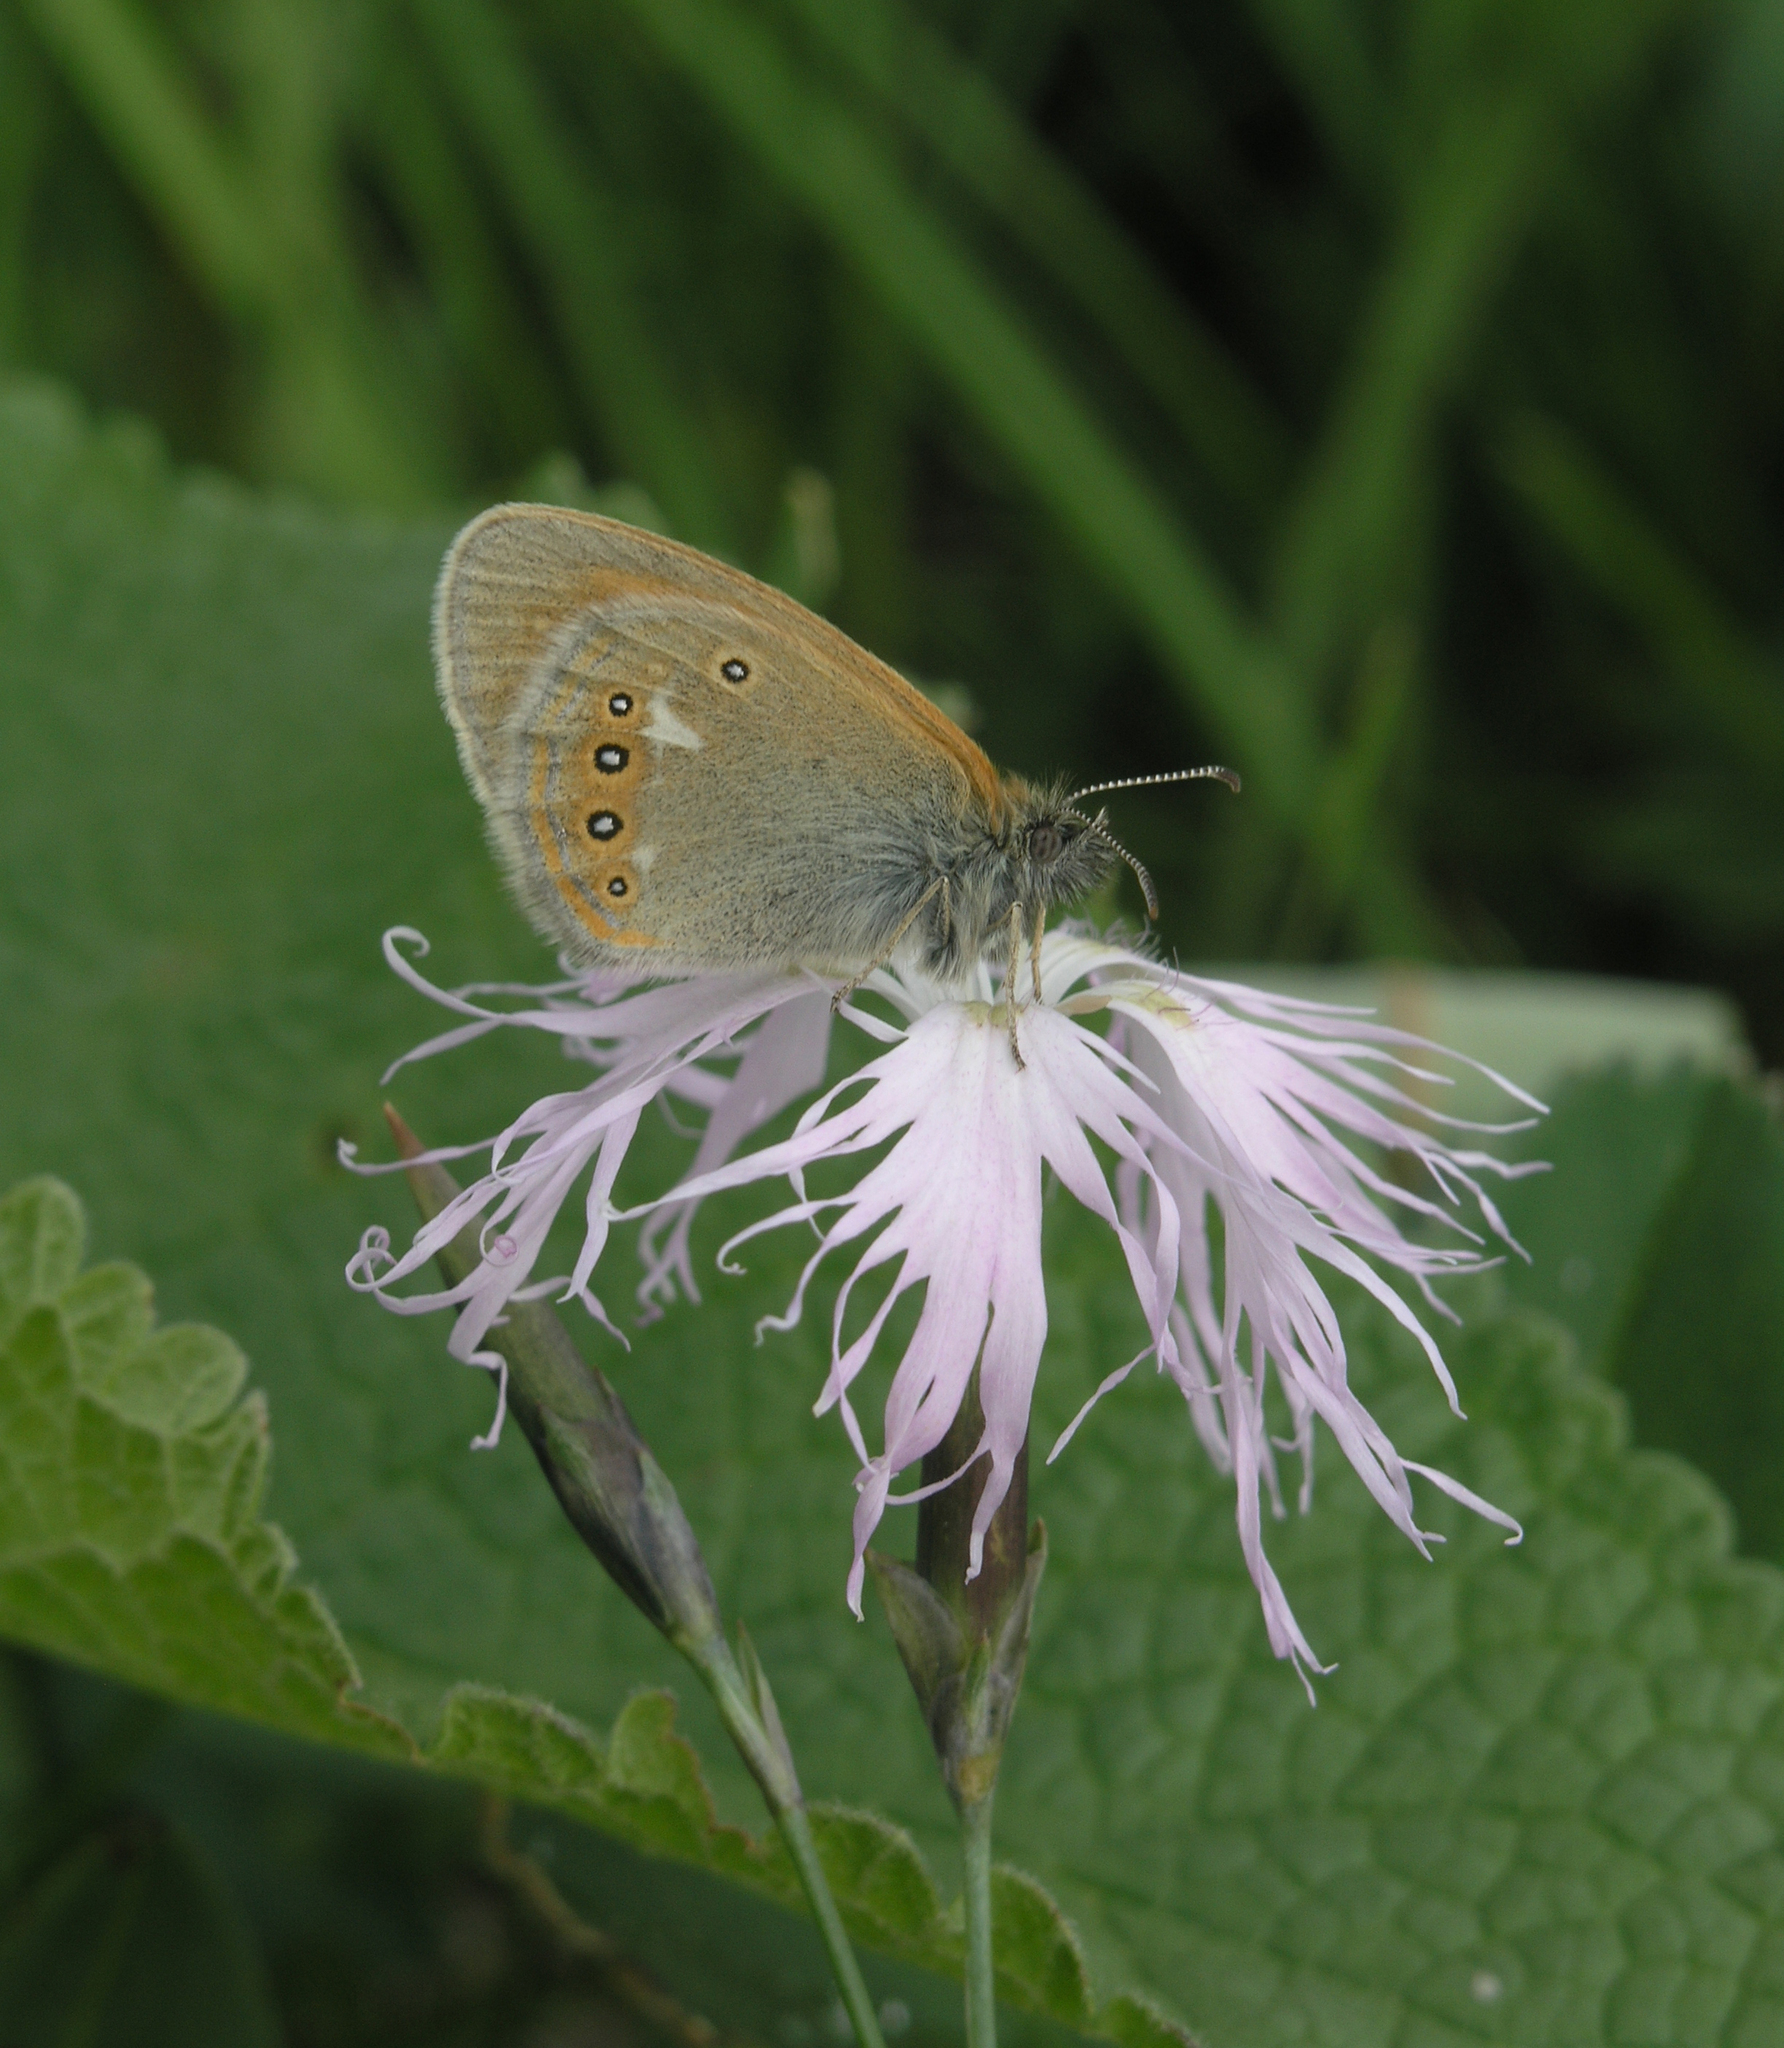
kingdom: Animalia
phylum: Arthropoda
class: Insecta
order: Lepidoptera
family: Nymphalidae
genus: Coenonympha
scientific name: Coenonympha iphis
